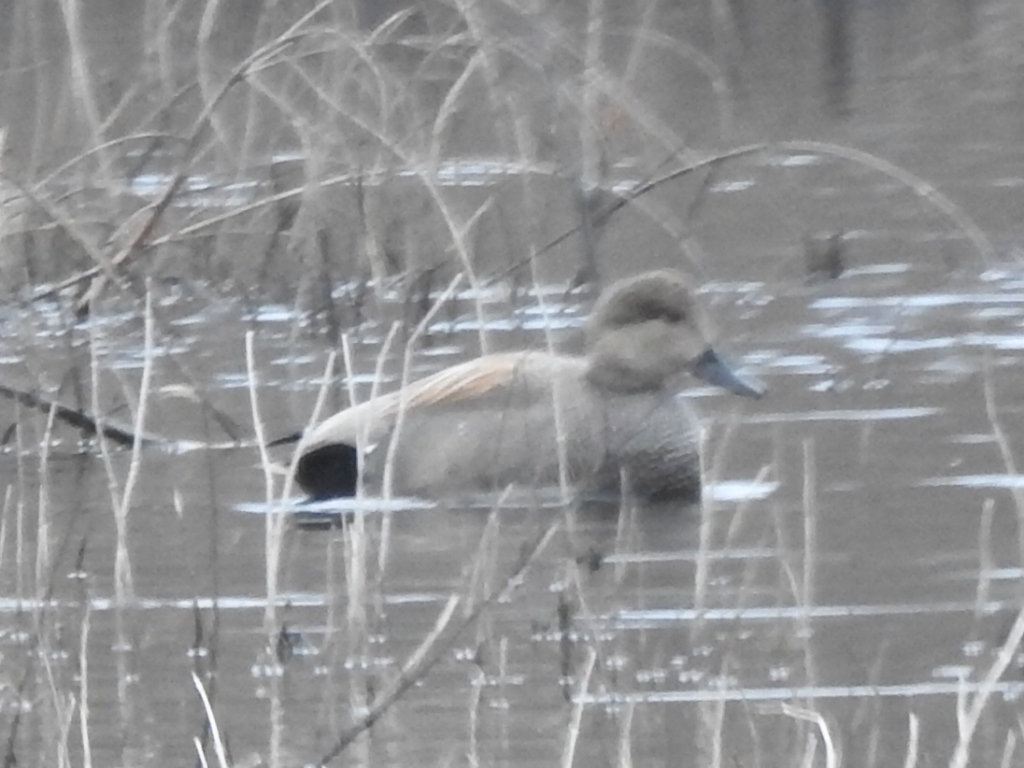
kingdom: Animalia
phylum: Chordata
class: Aves
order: Anseriformes
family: Anatidae
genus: Mareca
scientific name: Mareca strepera
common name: Gadwall
